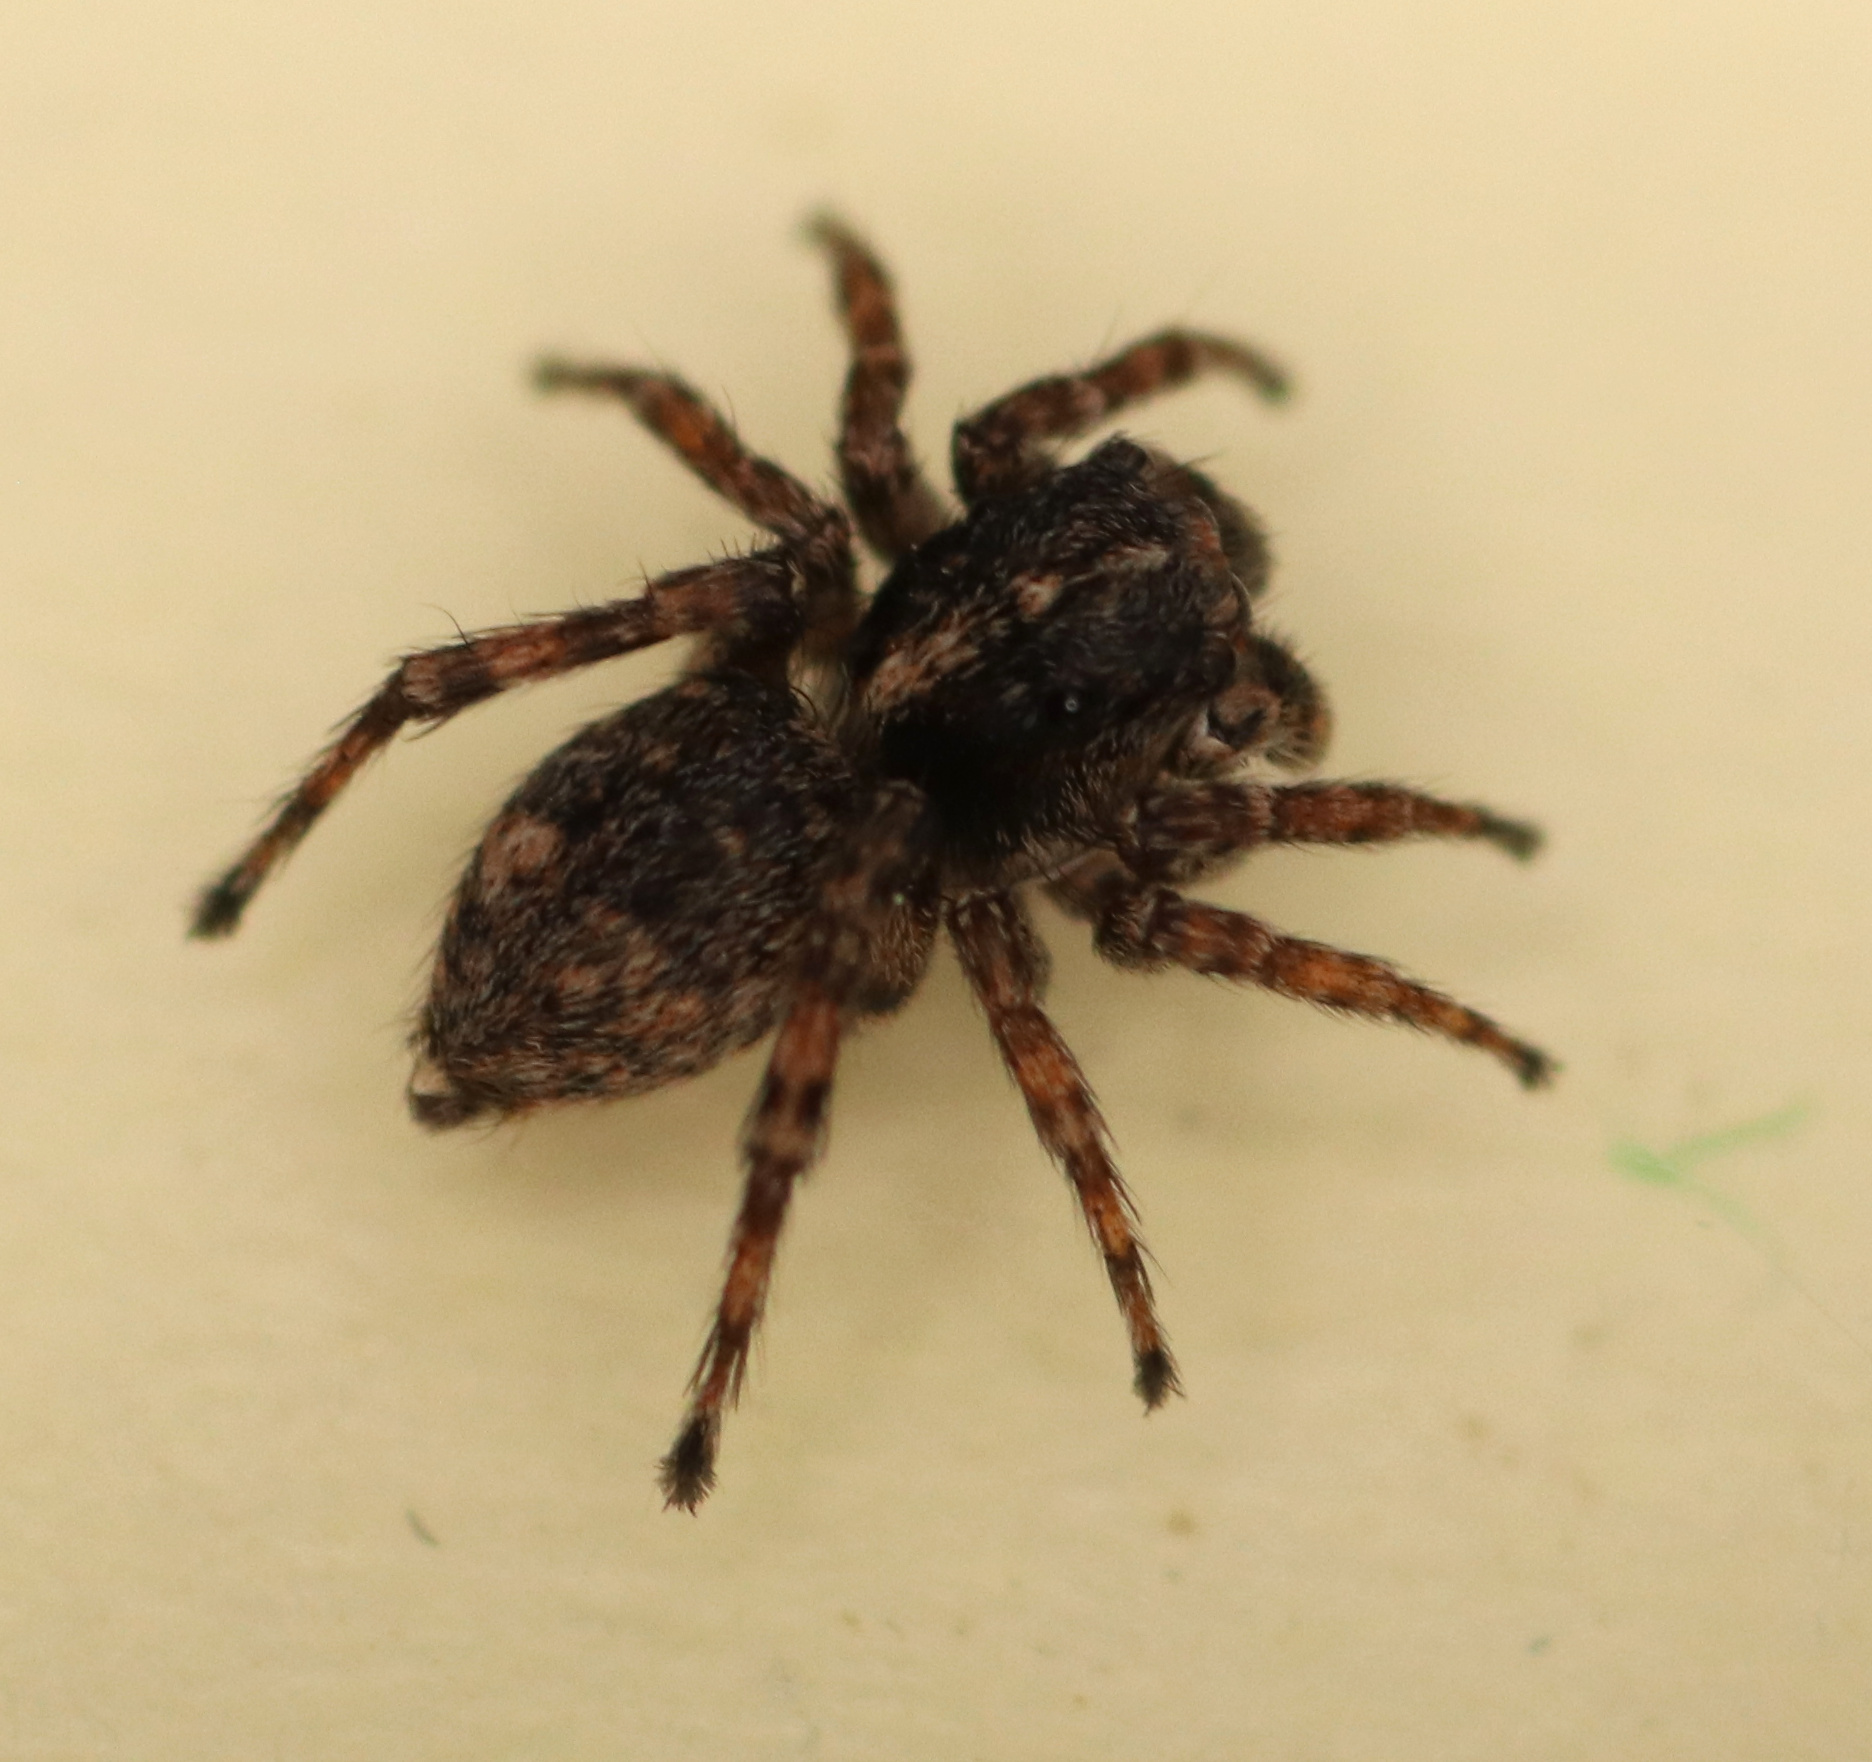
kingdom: Animalia
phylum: Arthropoda
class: Arachnida
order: Araneae
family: Salticidae
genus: Attulus
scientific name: Attulus fasciger
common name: Asiatic wall jumping spider
